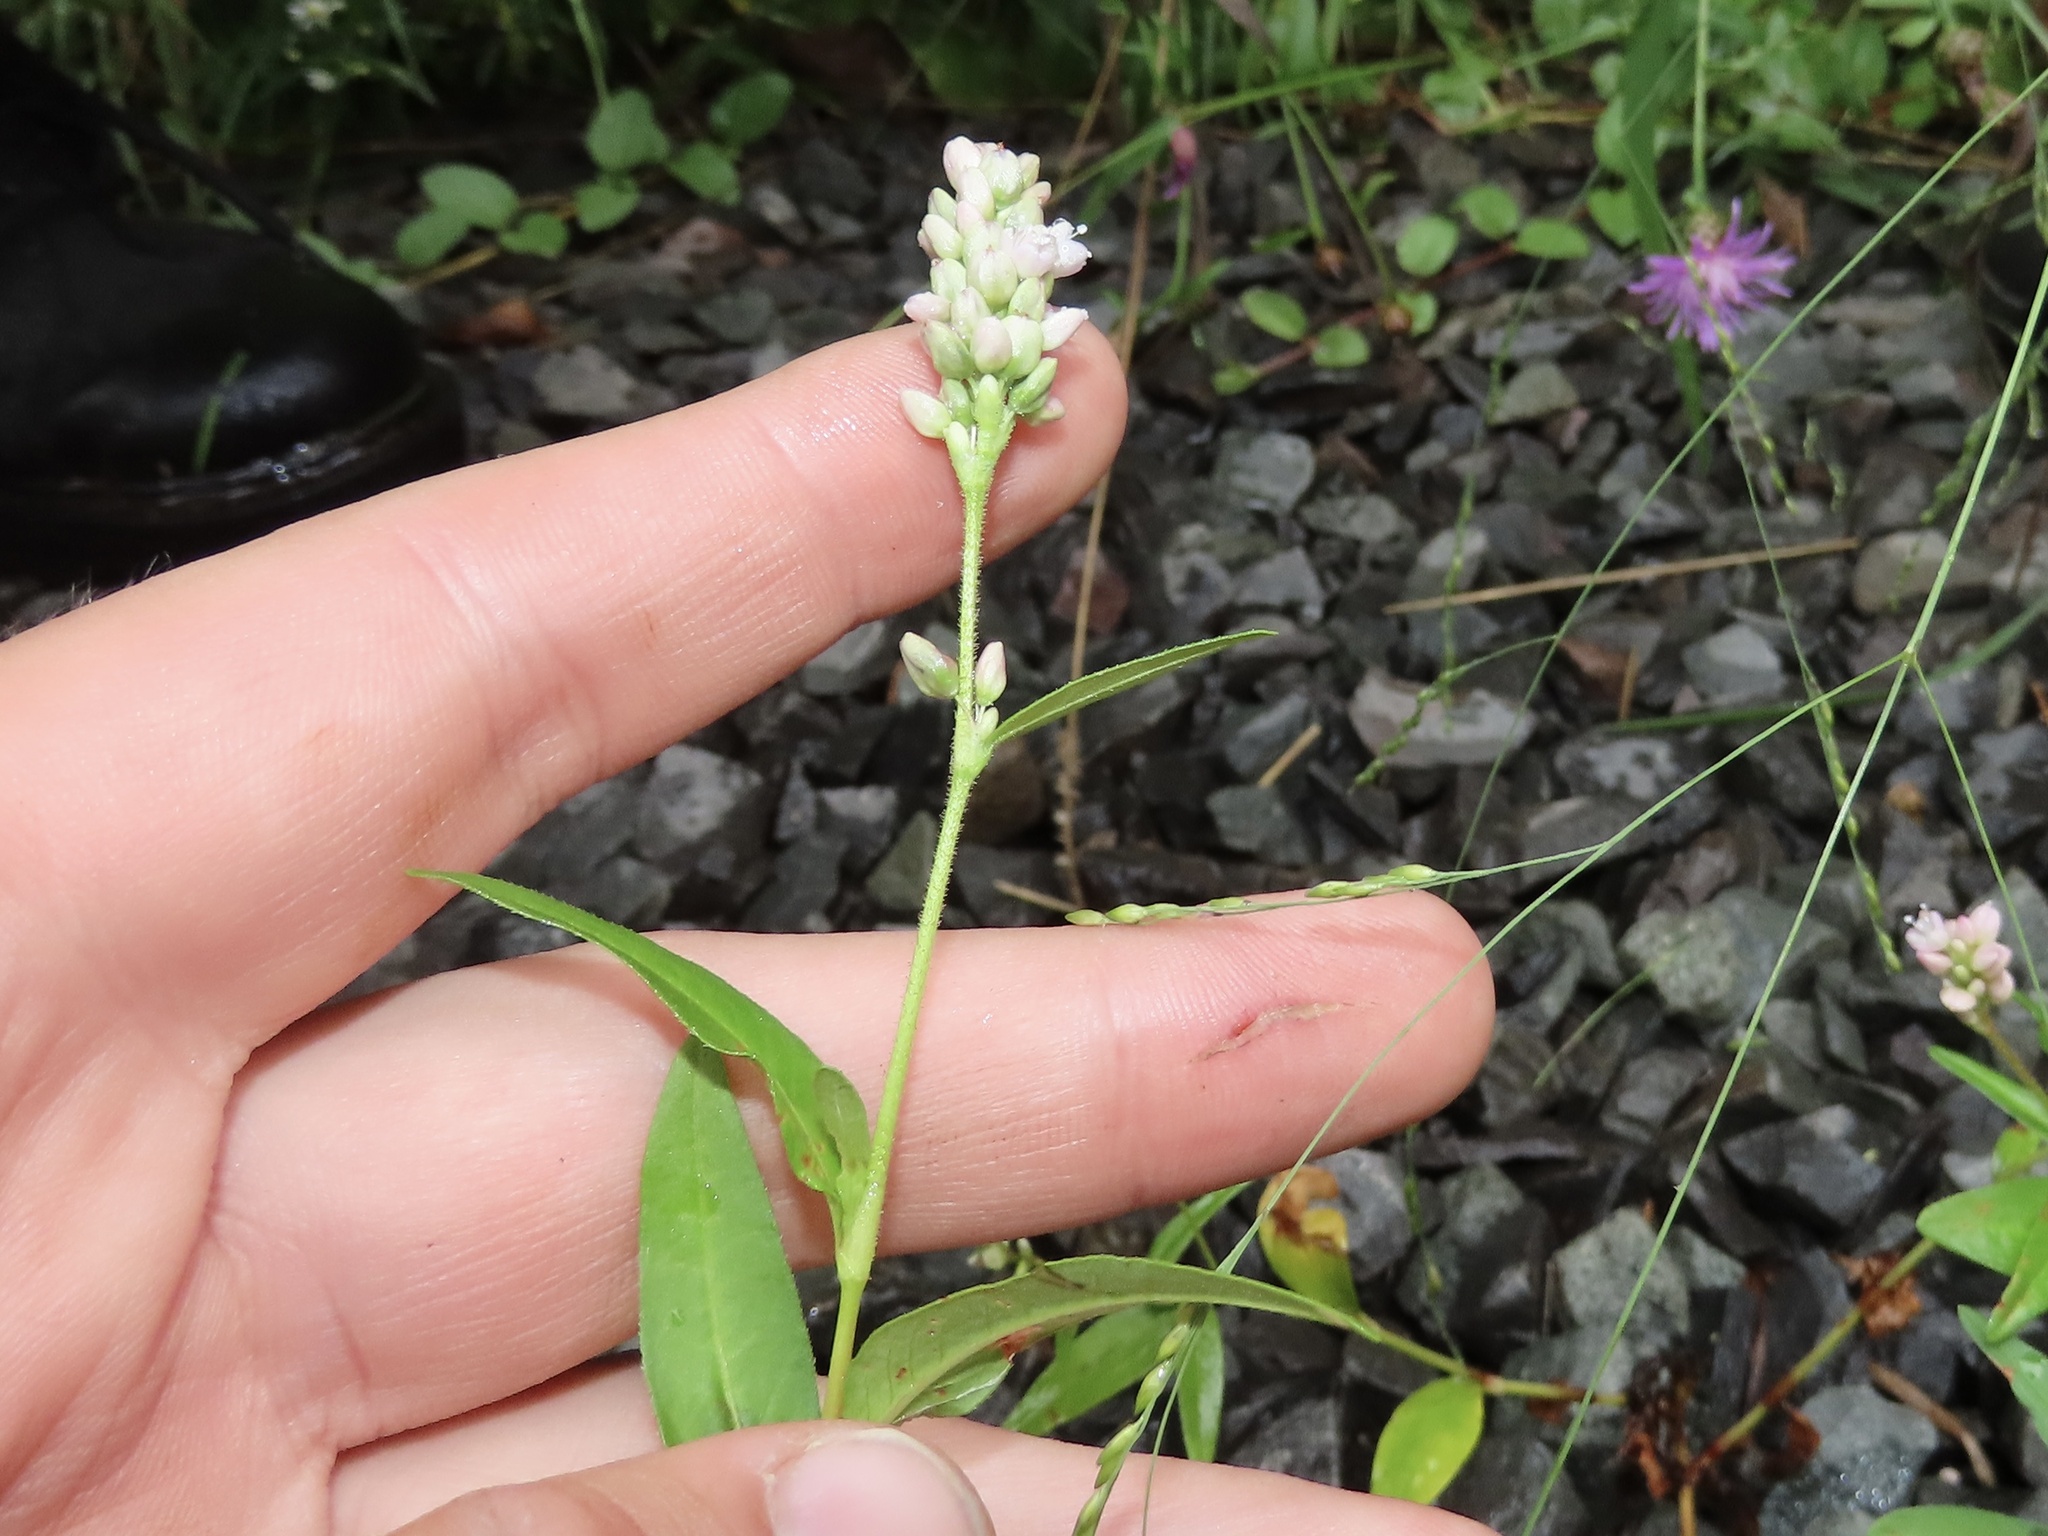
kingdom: Plantae
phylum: Tracheophyta
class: Magnoliopsida
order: Caryophyllales
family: Polygonaceae
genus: Persicaria
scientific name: Persicaria pensylvanica
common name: Pinkweed
